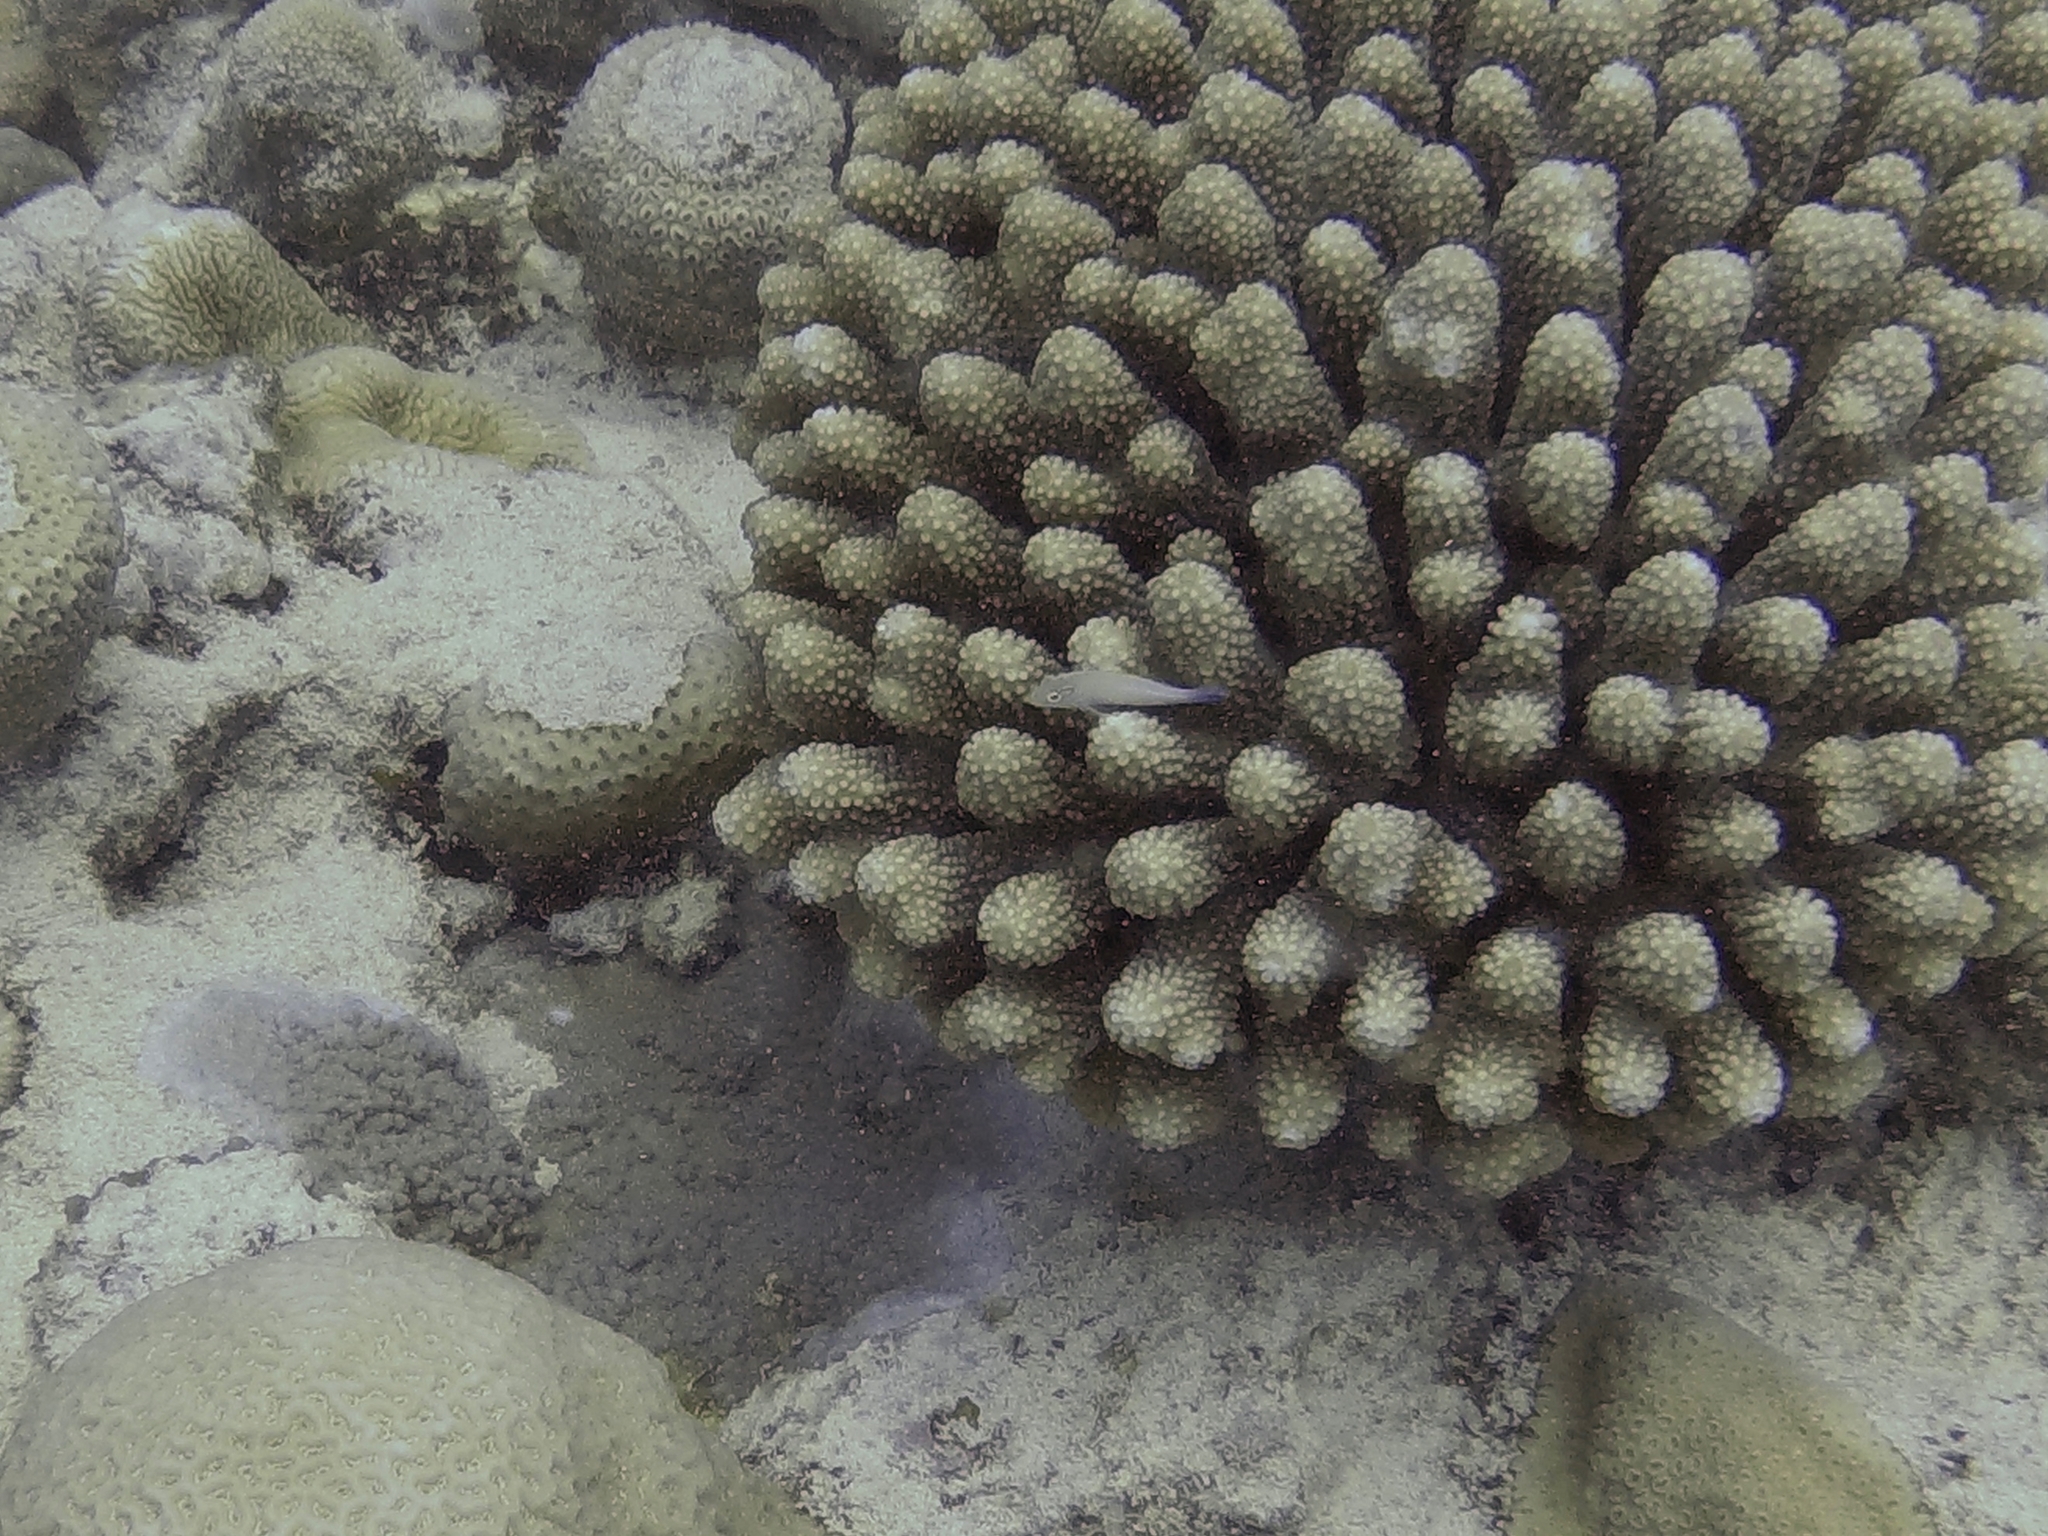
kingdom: Animalia
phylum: Chordata
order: Perciformes
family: Cirrhitidae
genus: Paracirrhites
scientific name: Paracirrhites arcatus
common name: Arc-eye hawkfish
